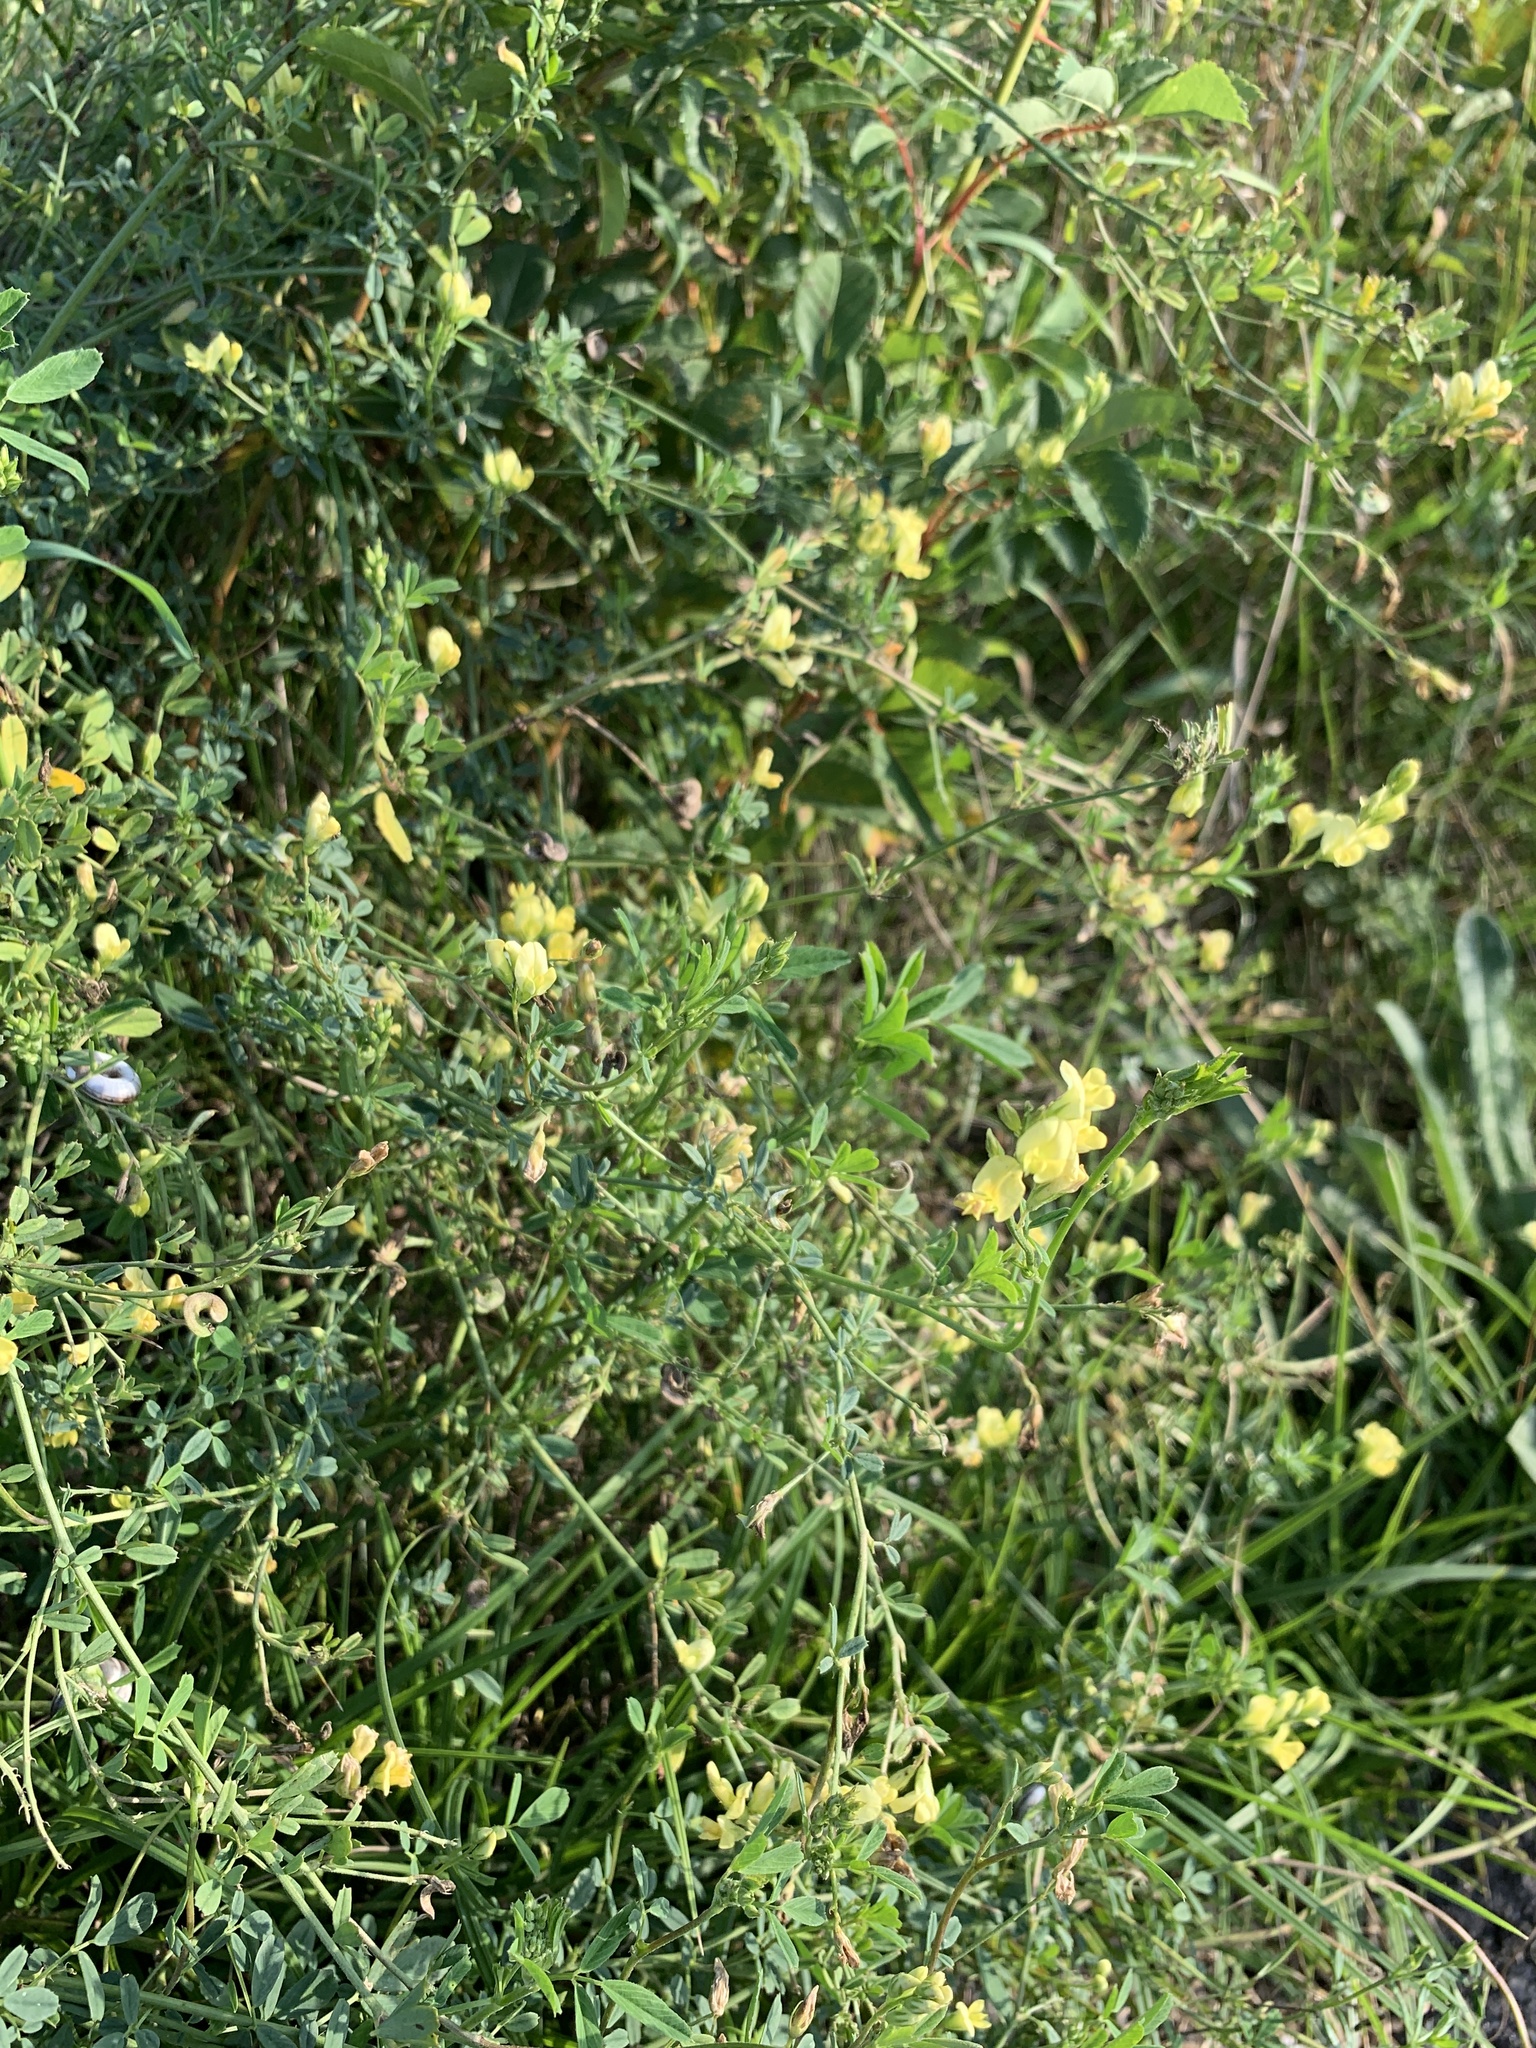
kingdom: Plantae
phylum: Tracheophyta
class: Magnoliopsida
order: Fabales
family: Fabaceae
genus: Medicago
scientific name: Medicago falcata
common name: Sickle medick
